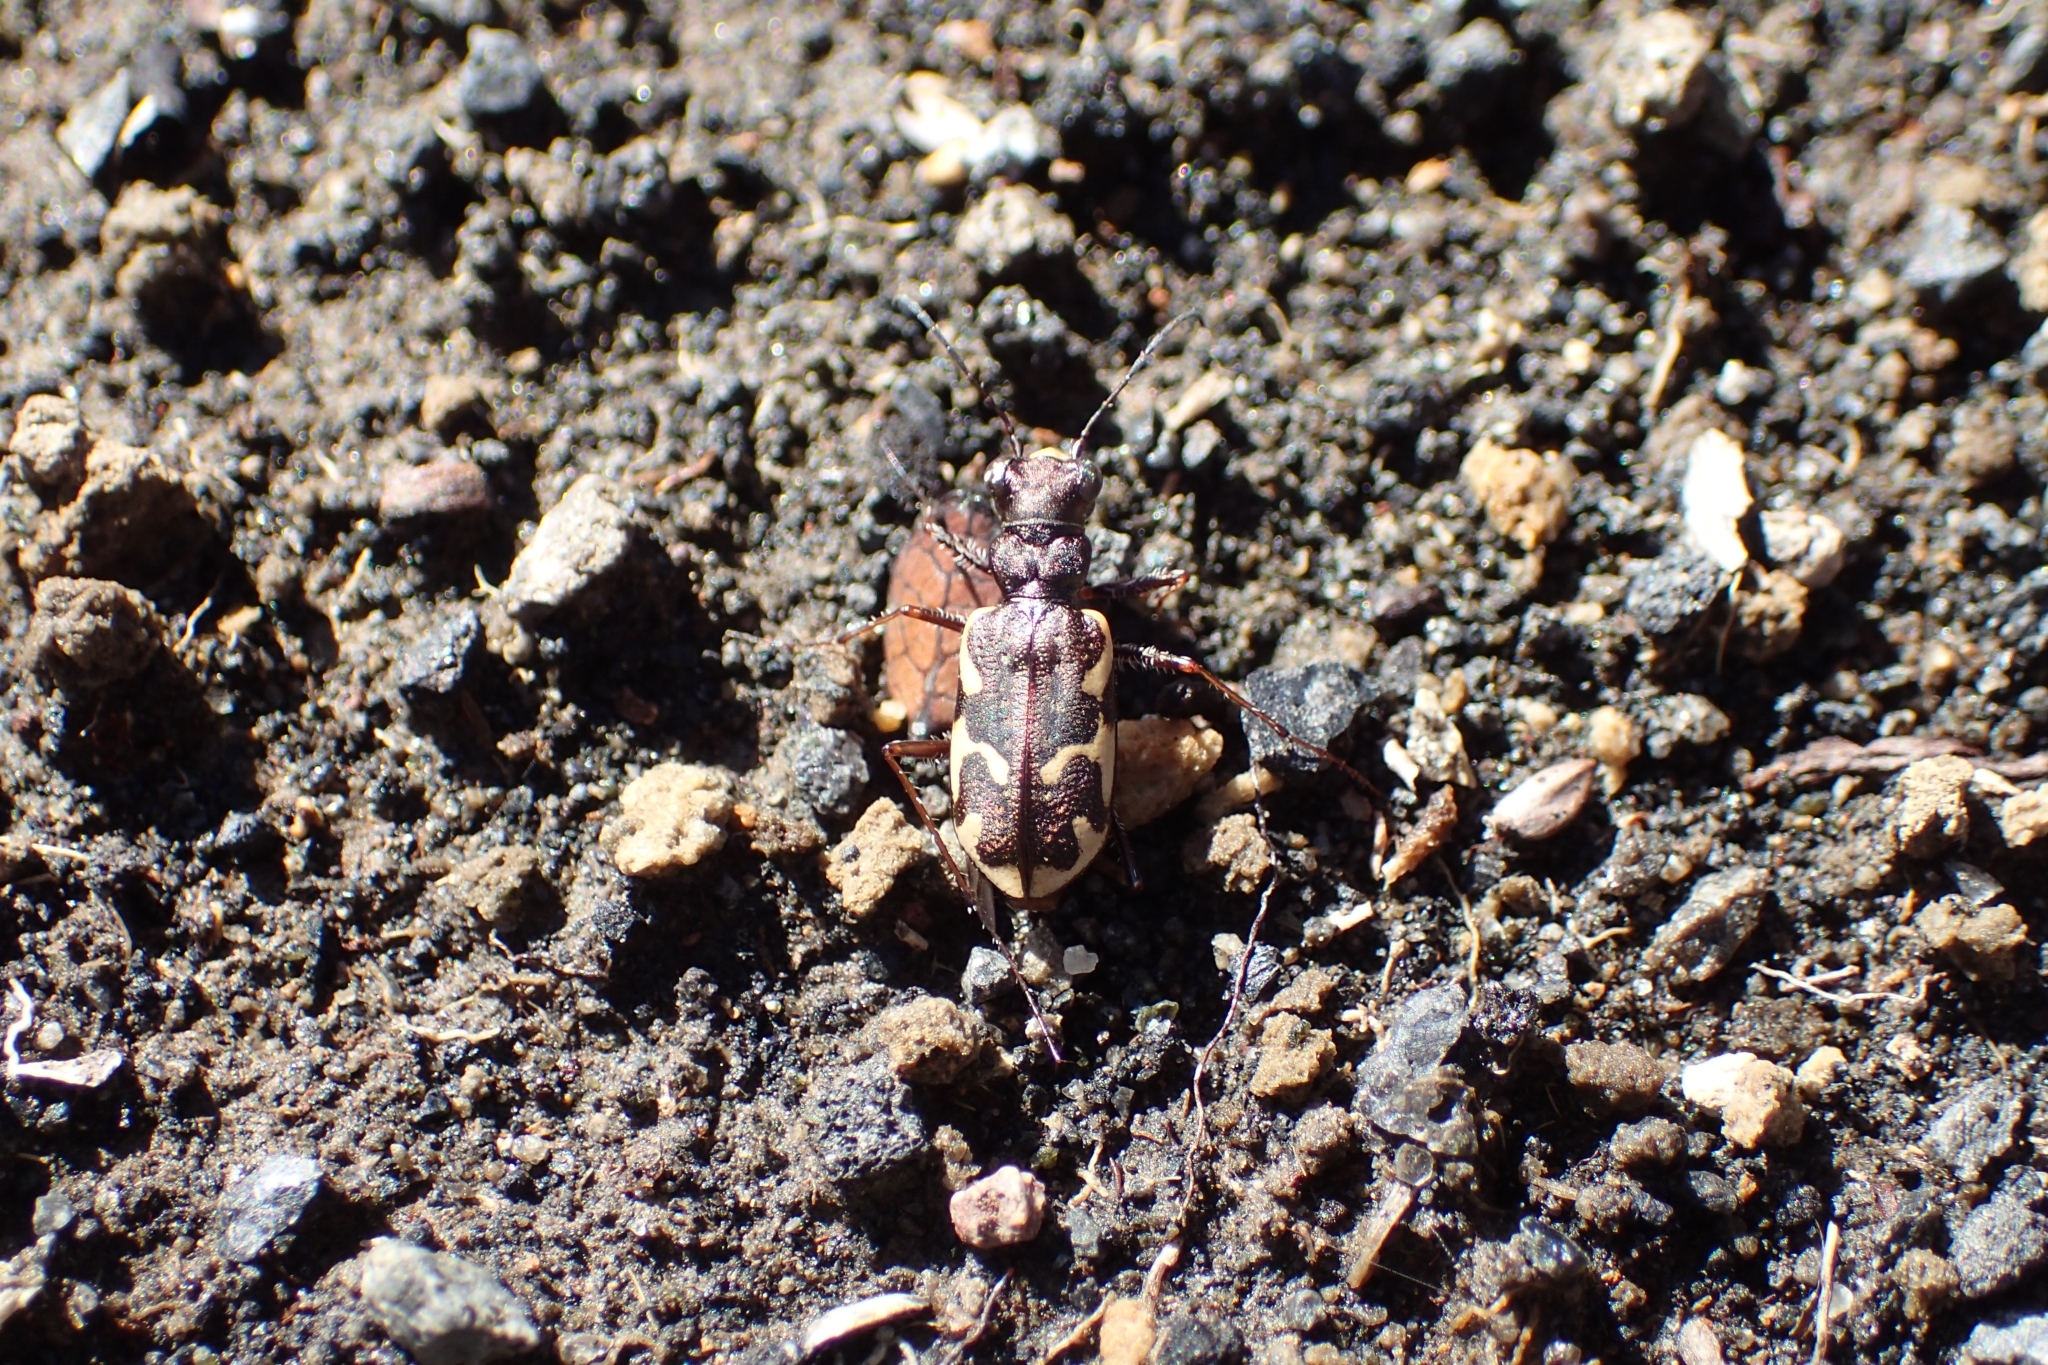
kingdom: Animalia
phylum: Arthropoda
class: Insecta
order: Coleoptera
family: Carabidae
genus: Neocicindela
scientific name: Neocicindela tuberculata
